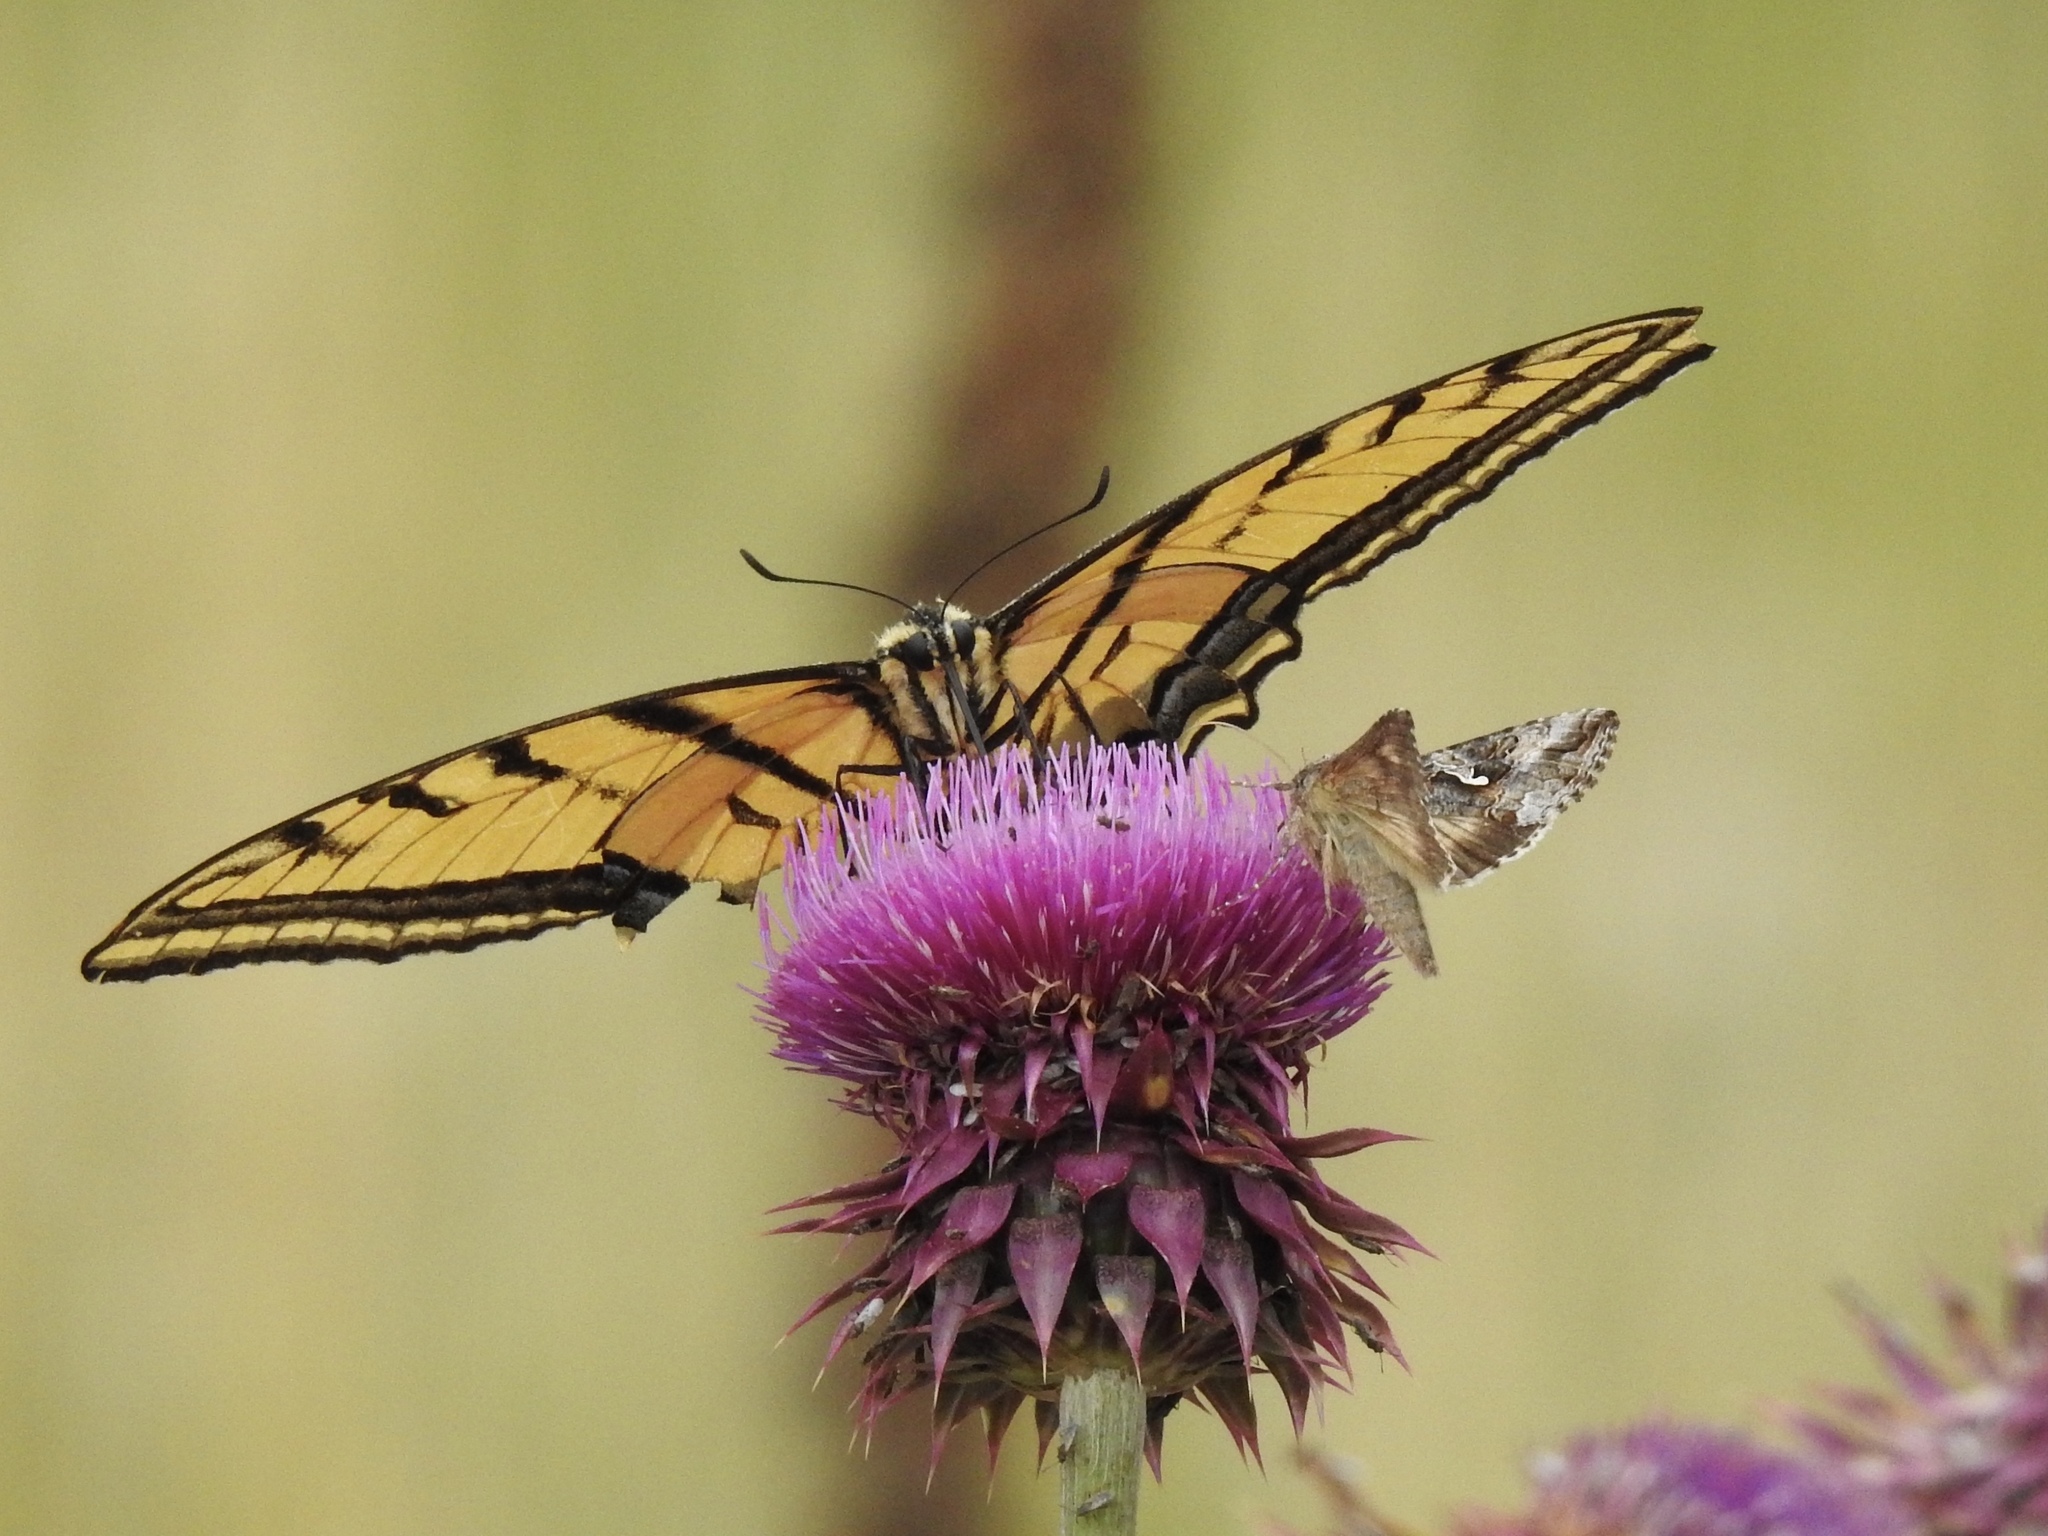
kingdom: Animalia
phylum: Arthropoda
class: Insecta
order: Lepidoptera
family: Papilionidae
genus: Papilio
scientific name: Papilio multicaudata
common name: Two-tailed tiger swallowtail
